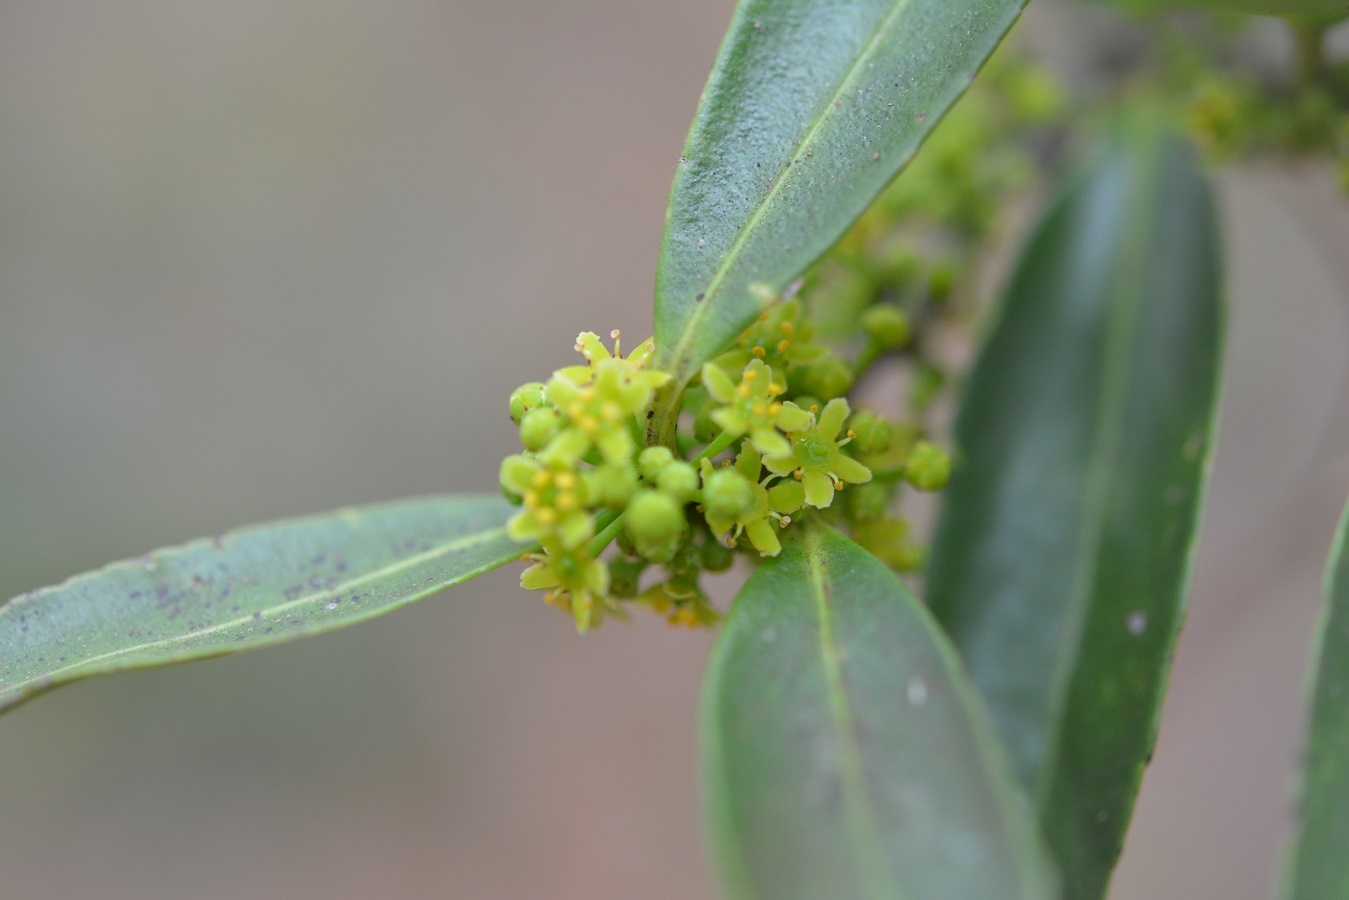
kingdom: Plantae
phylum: Tracheophyta
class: Magnoliopsida
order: Celastrales
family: Celastraceae
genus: Monteverdia
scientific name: Monteverdia stipitata
